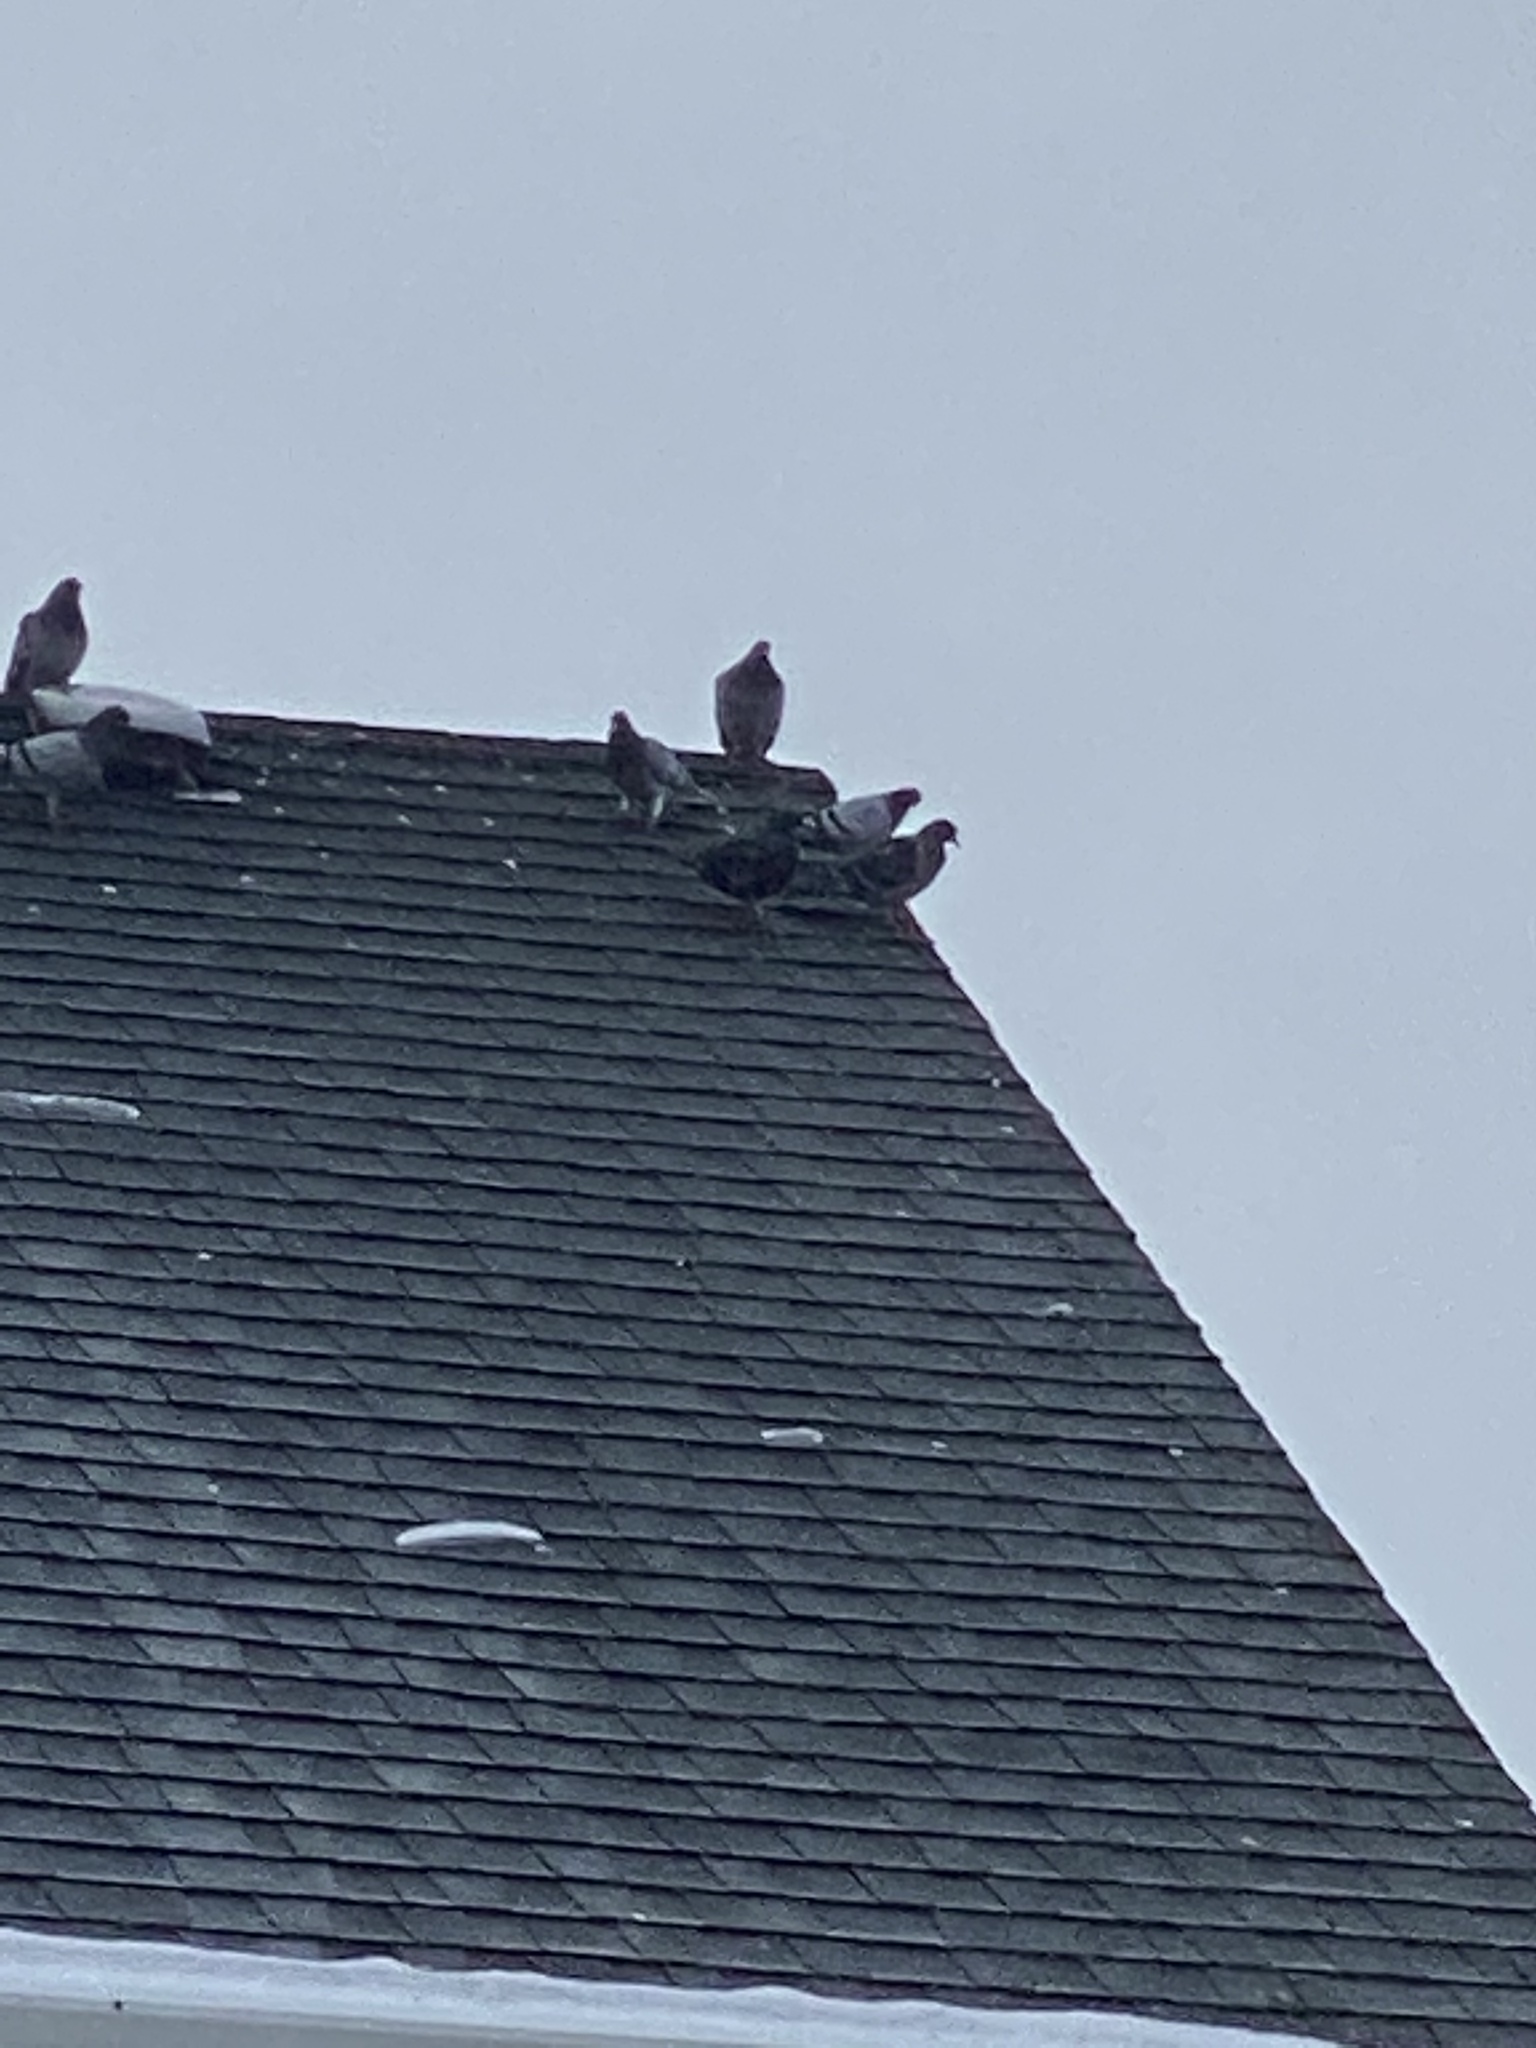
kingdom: Animalia
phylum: Chordata
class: Aves
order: Columbiformes
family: Columbidae
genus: Columba
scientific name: Columba livia
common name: Rock pigeon
